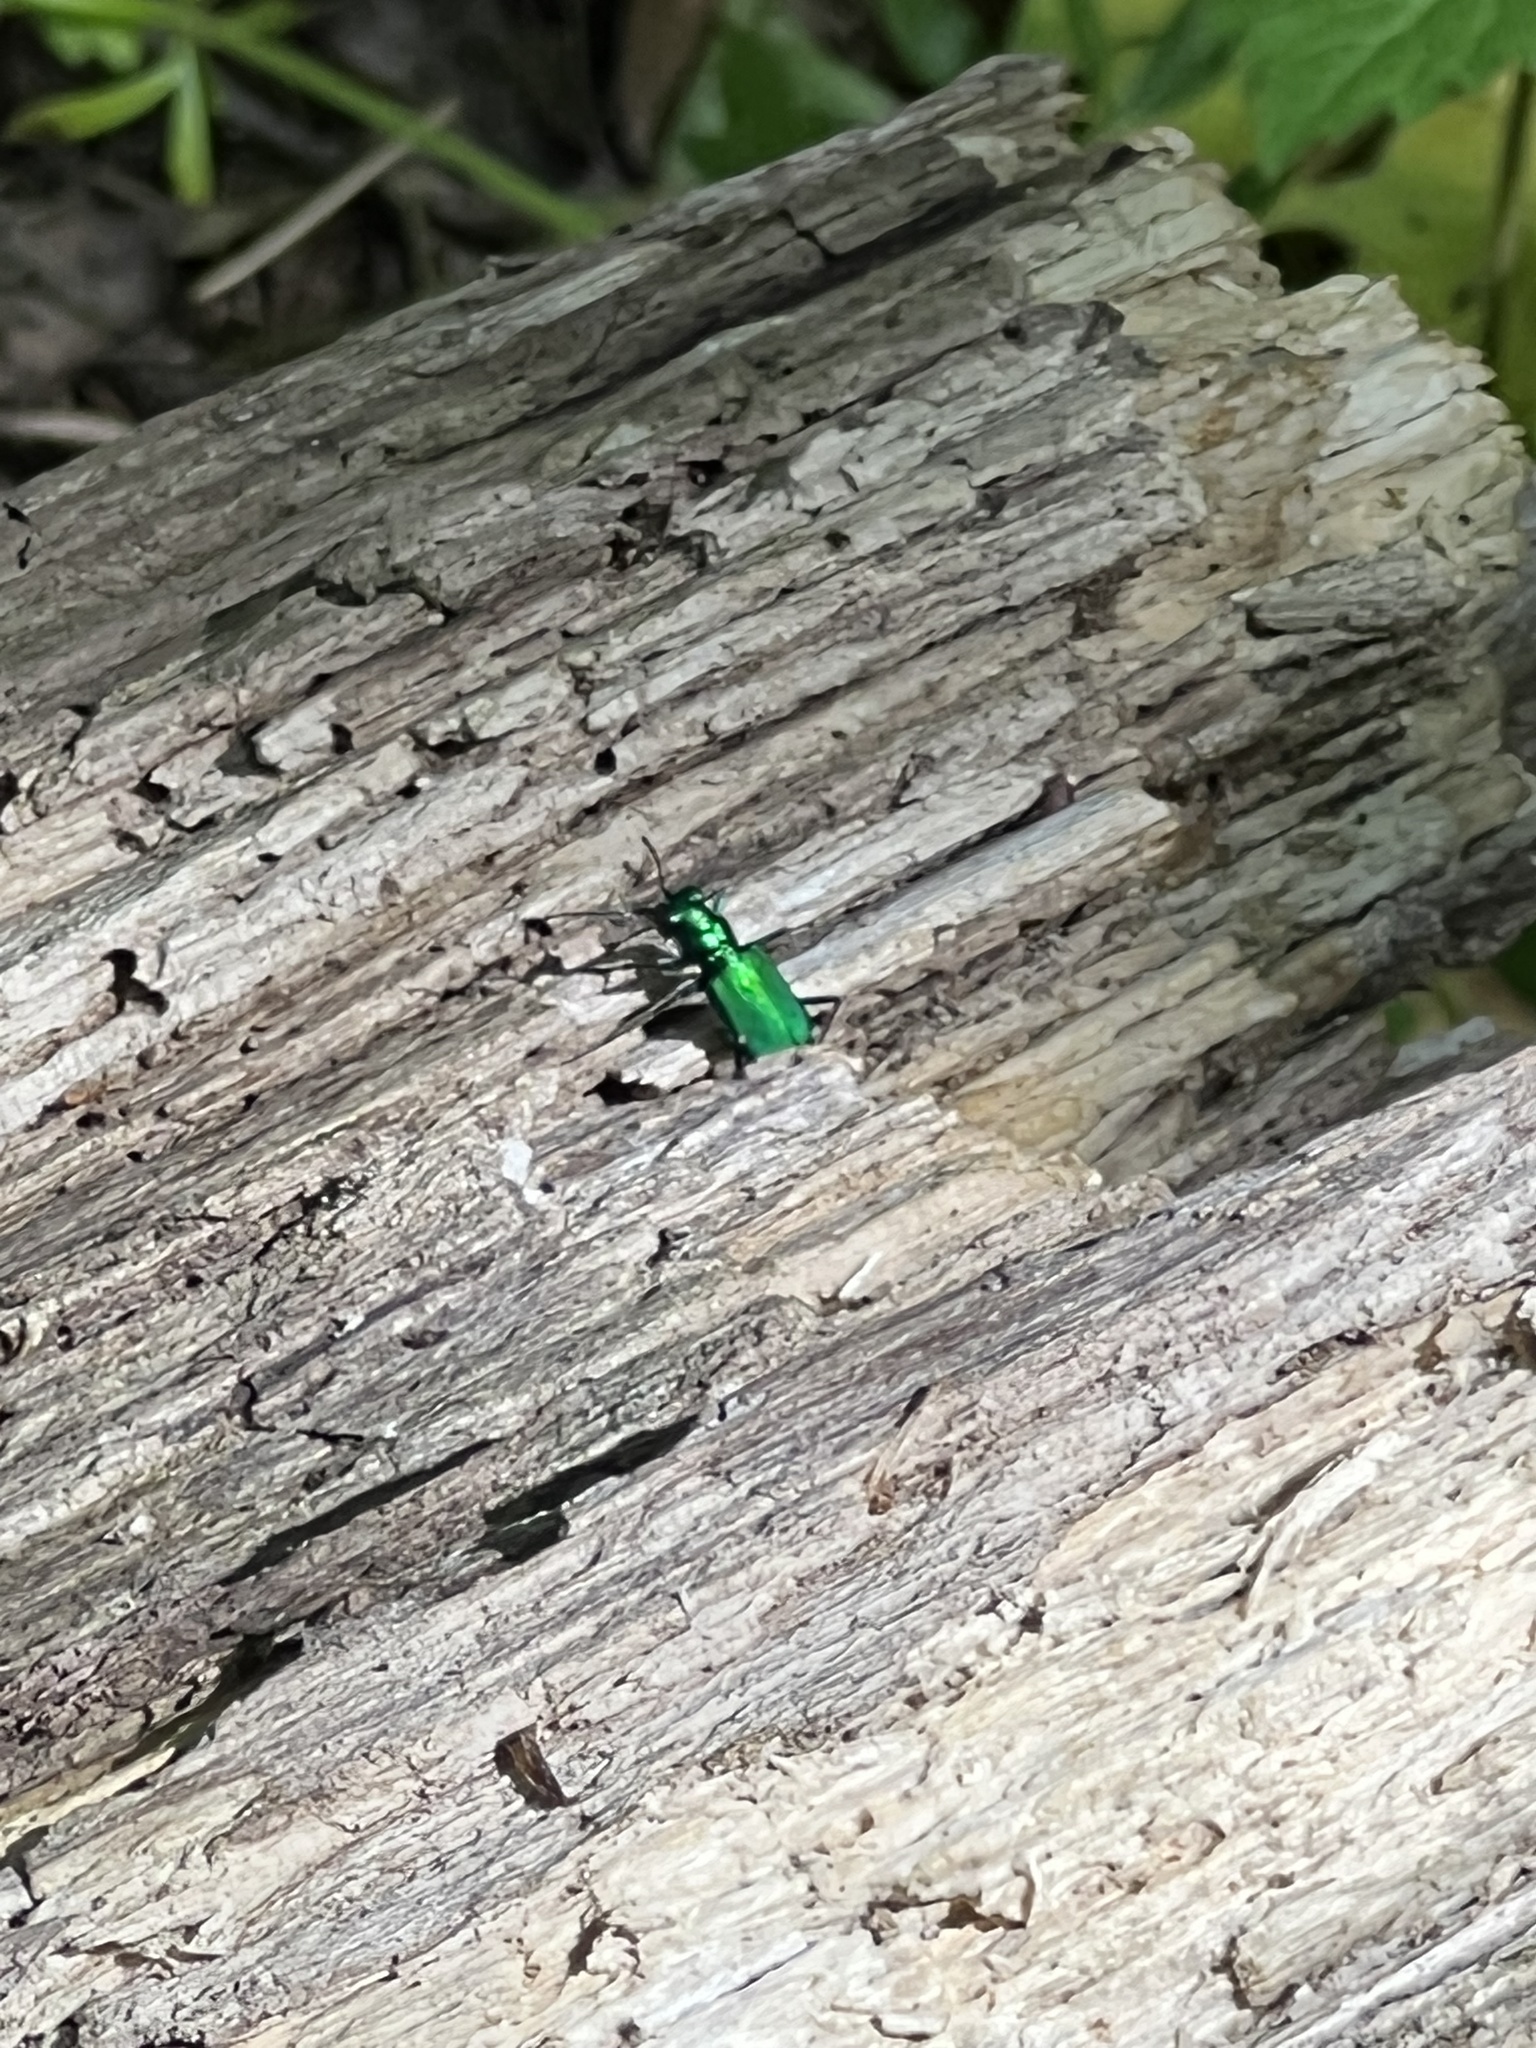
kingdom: Animalia
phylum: Arthropoda
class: Insecta
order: Coleoptera
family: Carabidae
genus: Cicindela
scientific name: Cicindela sexguttata
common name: Six-spotted tiger beetle
